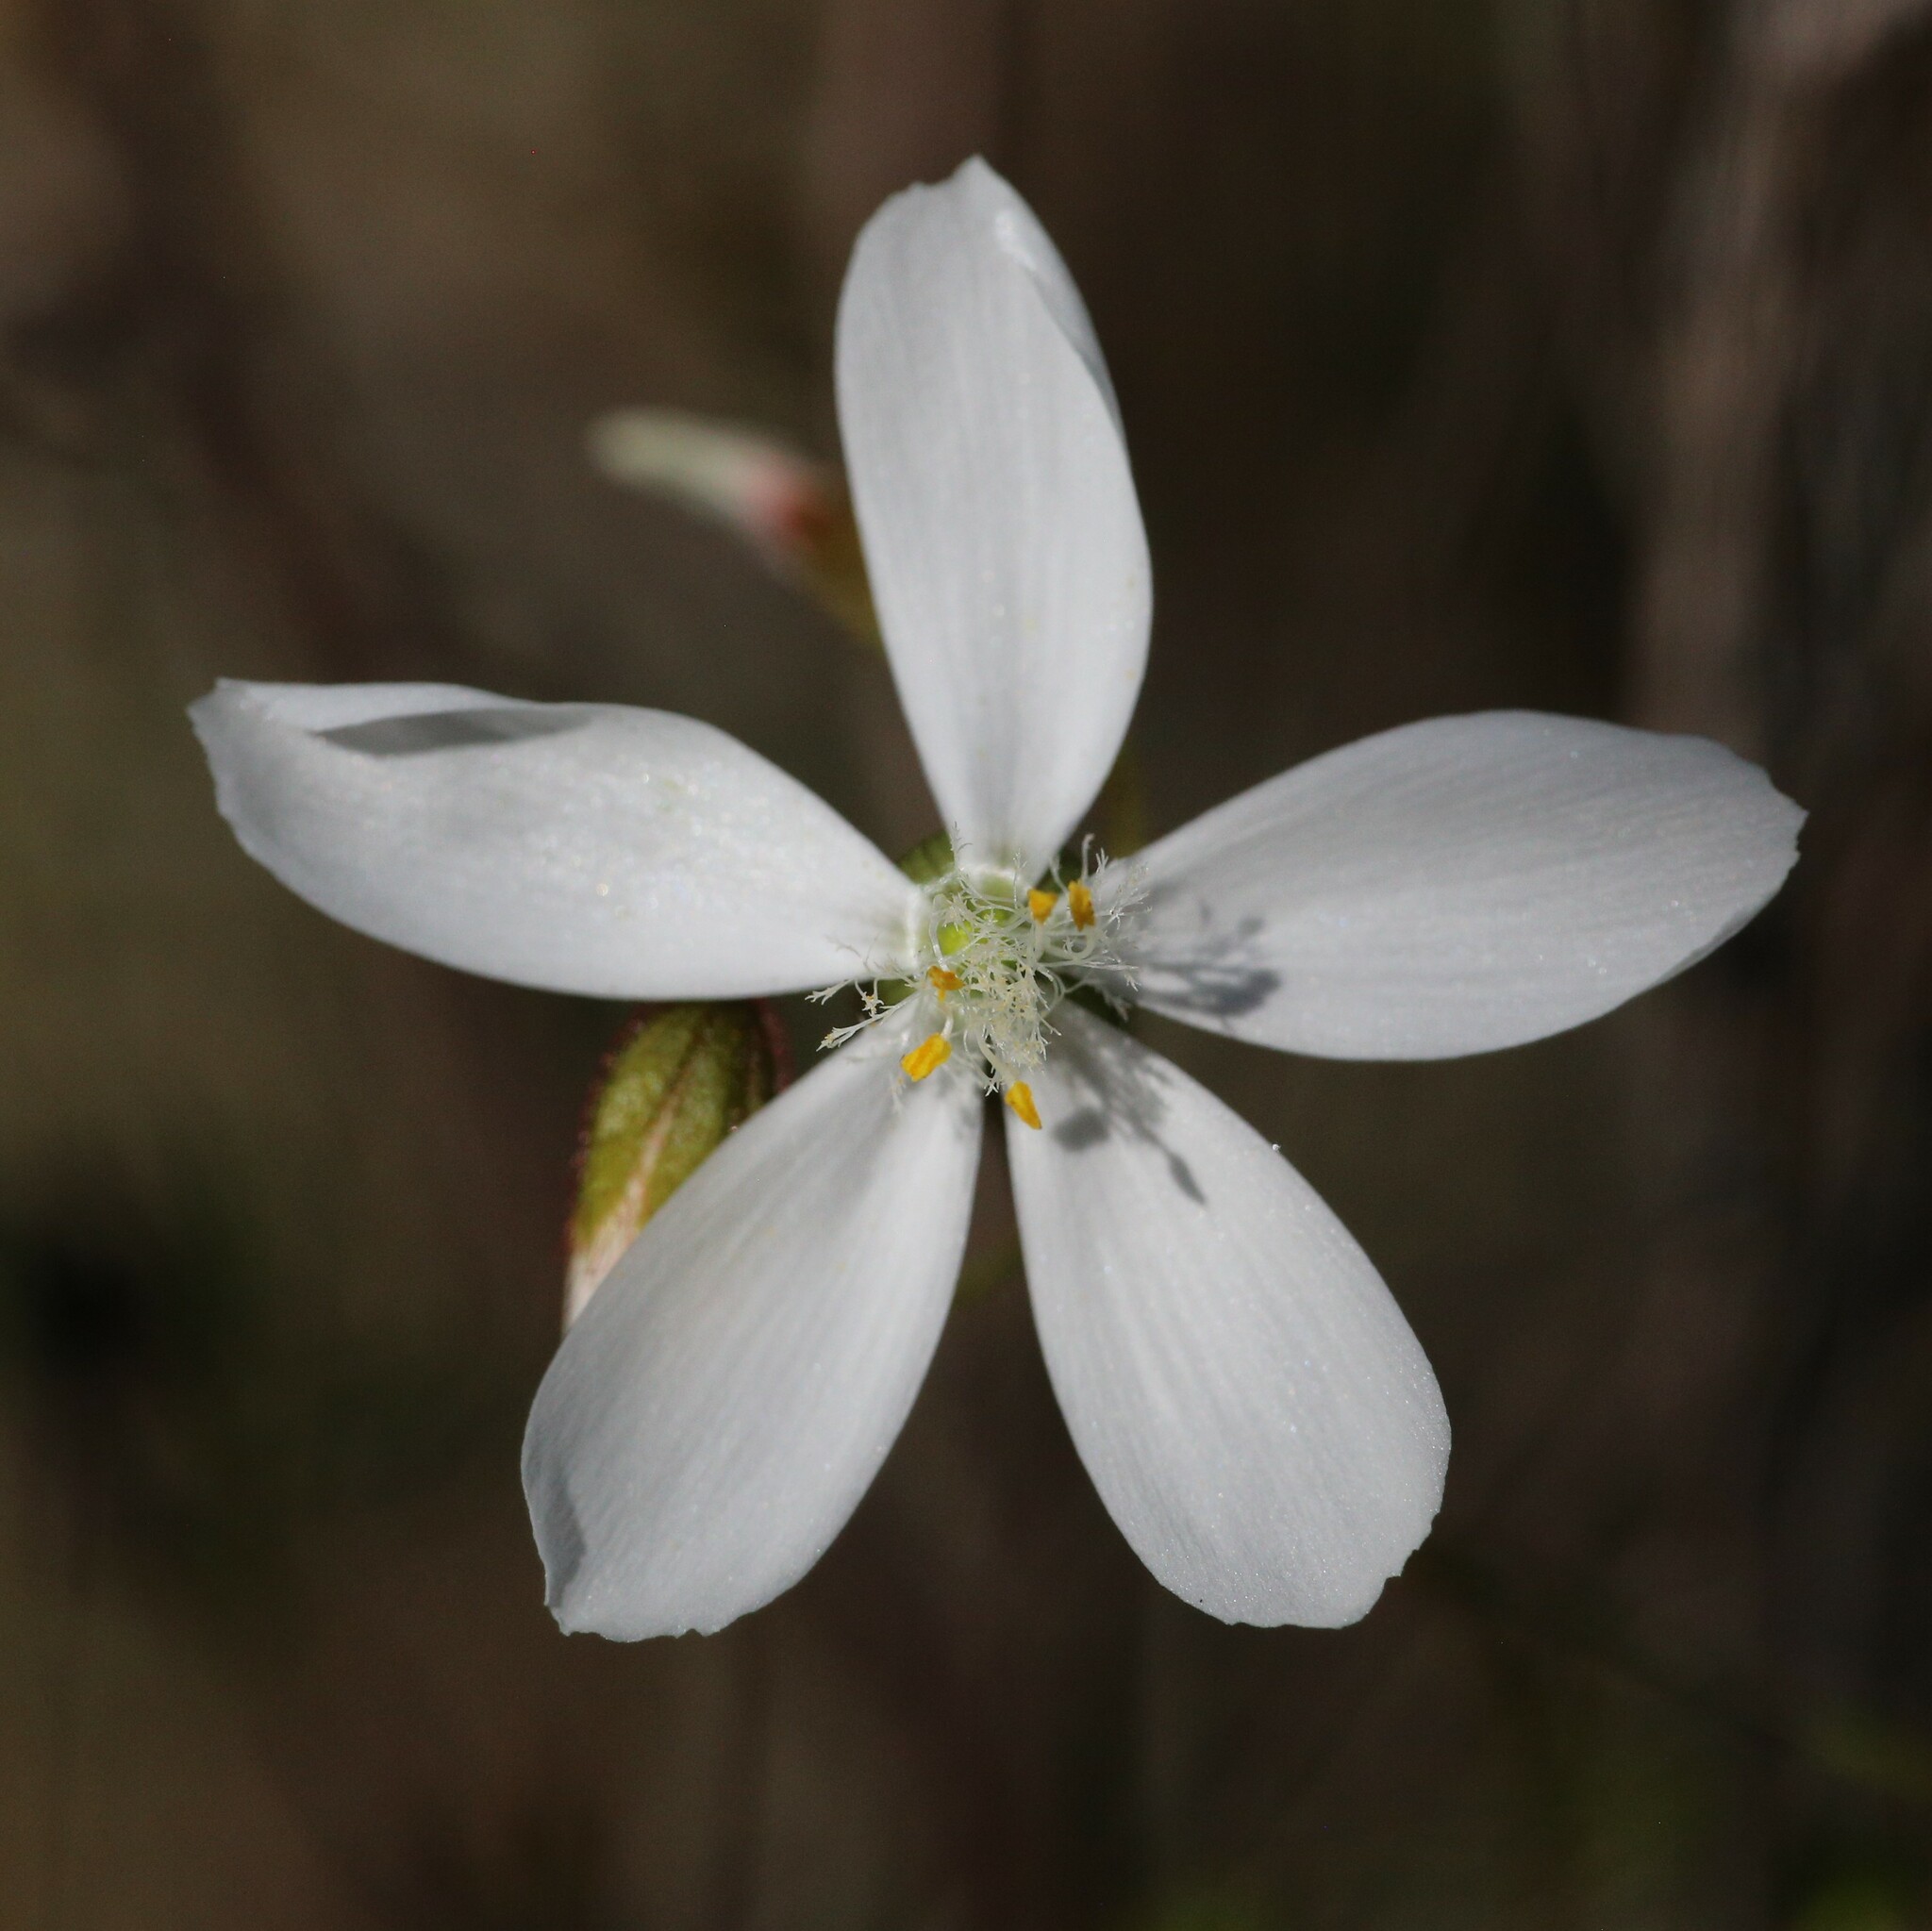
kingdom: Plantae
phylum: Tracheophyta
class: Magnoliopsida
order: Caryophyllales
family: Droseraceae
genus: Drosera
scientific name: Drosera macrantha
